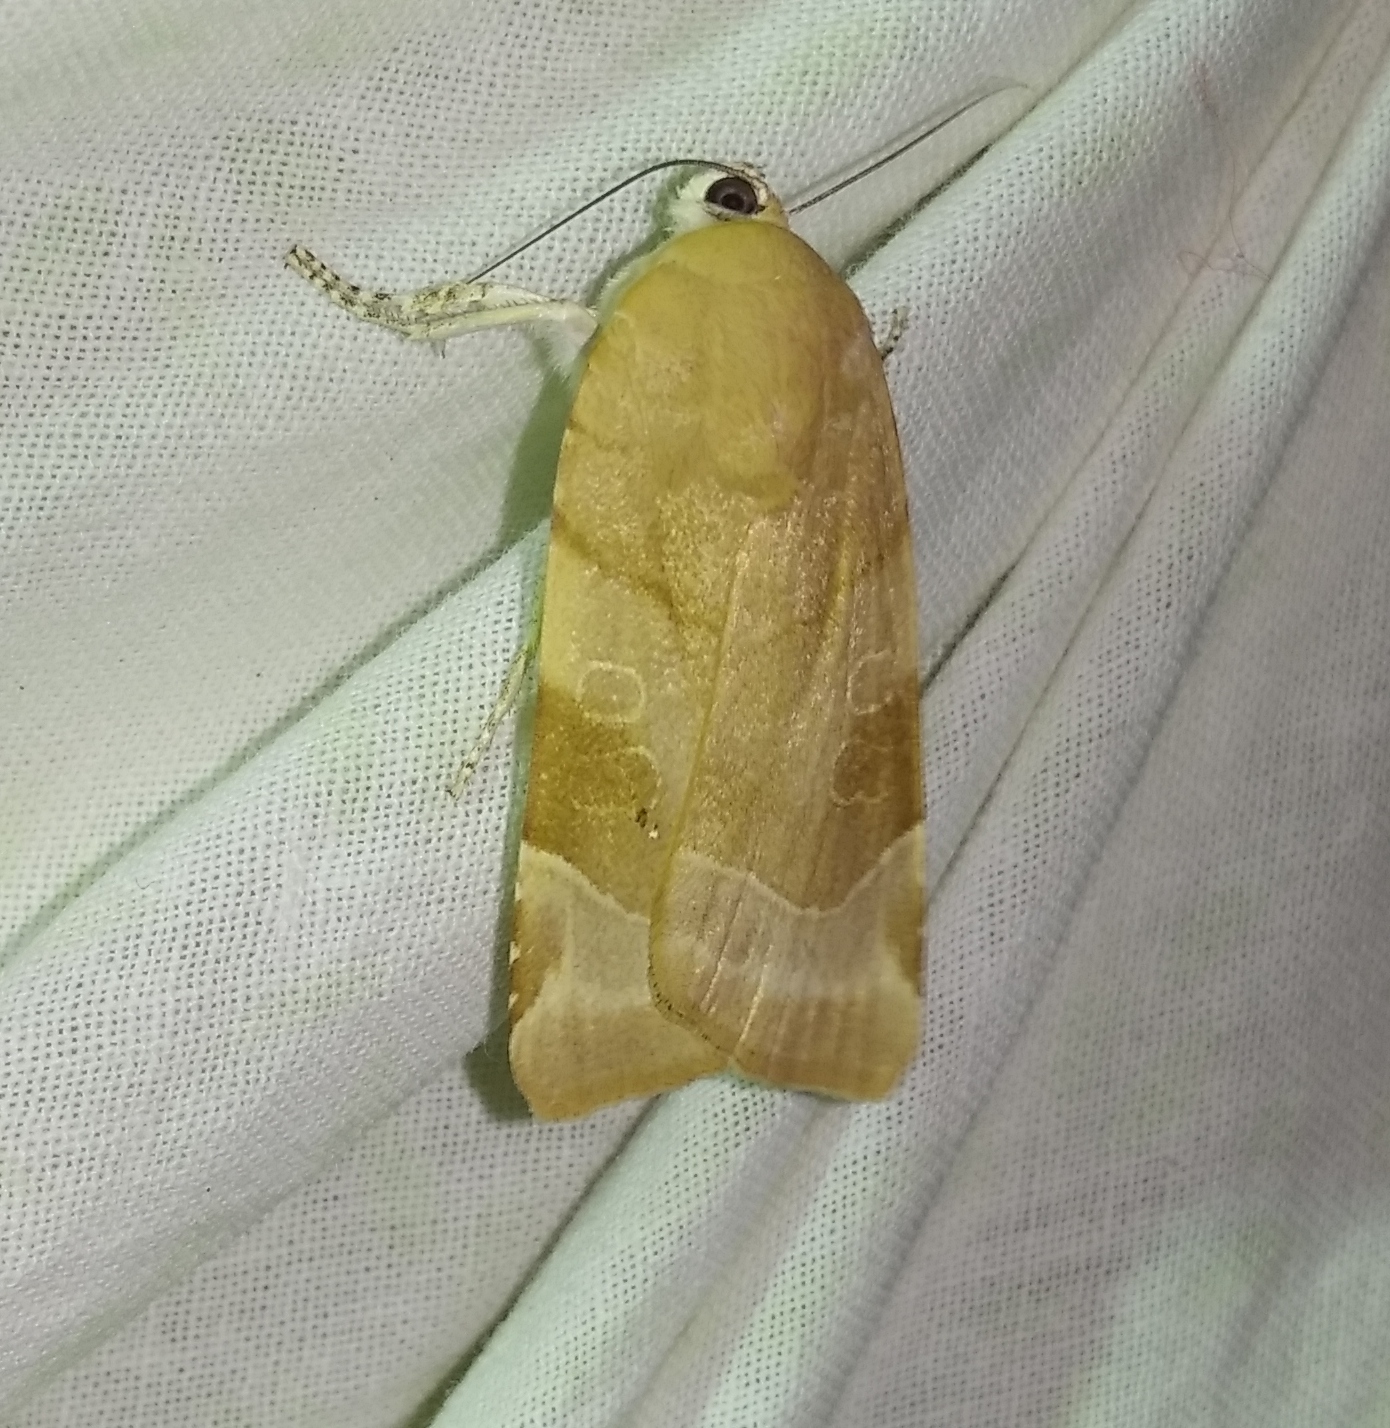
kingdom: Animalia
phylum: Arthropoda
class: Insecta
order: Lepidoptera
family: Noctuidae
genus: Noctua
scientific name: Noctua fimbriata
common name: Broad-bordered yellow underwing
